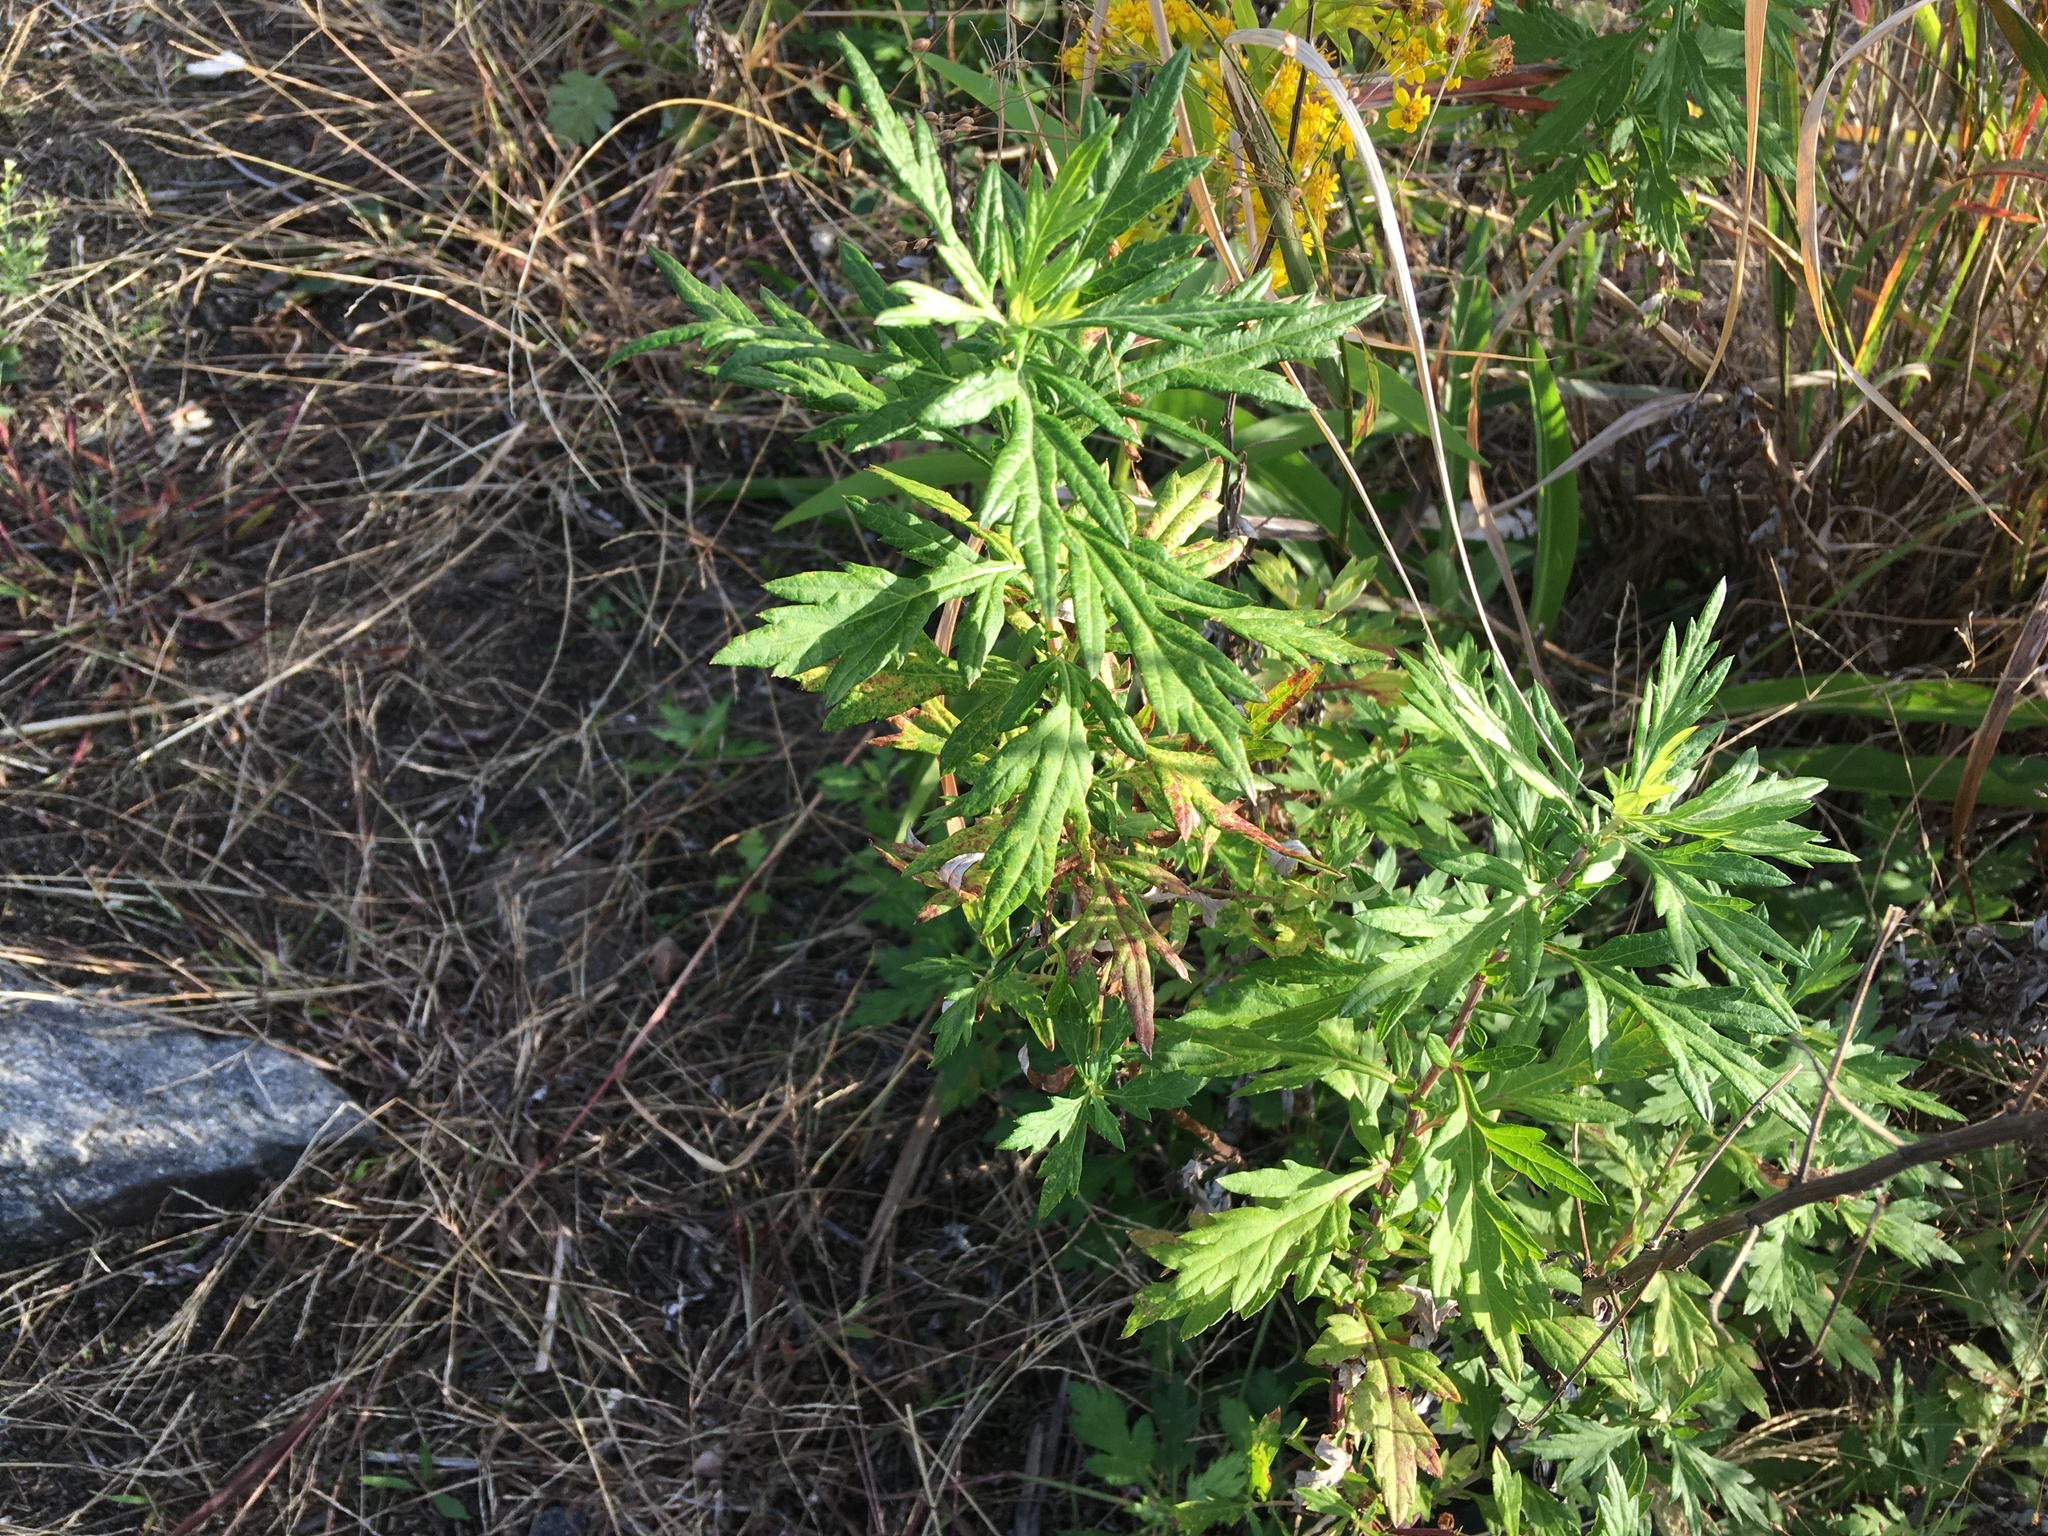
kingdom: Plantae
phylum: Tracheophyta
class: Magnoliopsida
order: Asterales
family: Asteraceae
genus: Artemisia
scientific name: Artemisia vulgaris
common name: Mugwort
